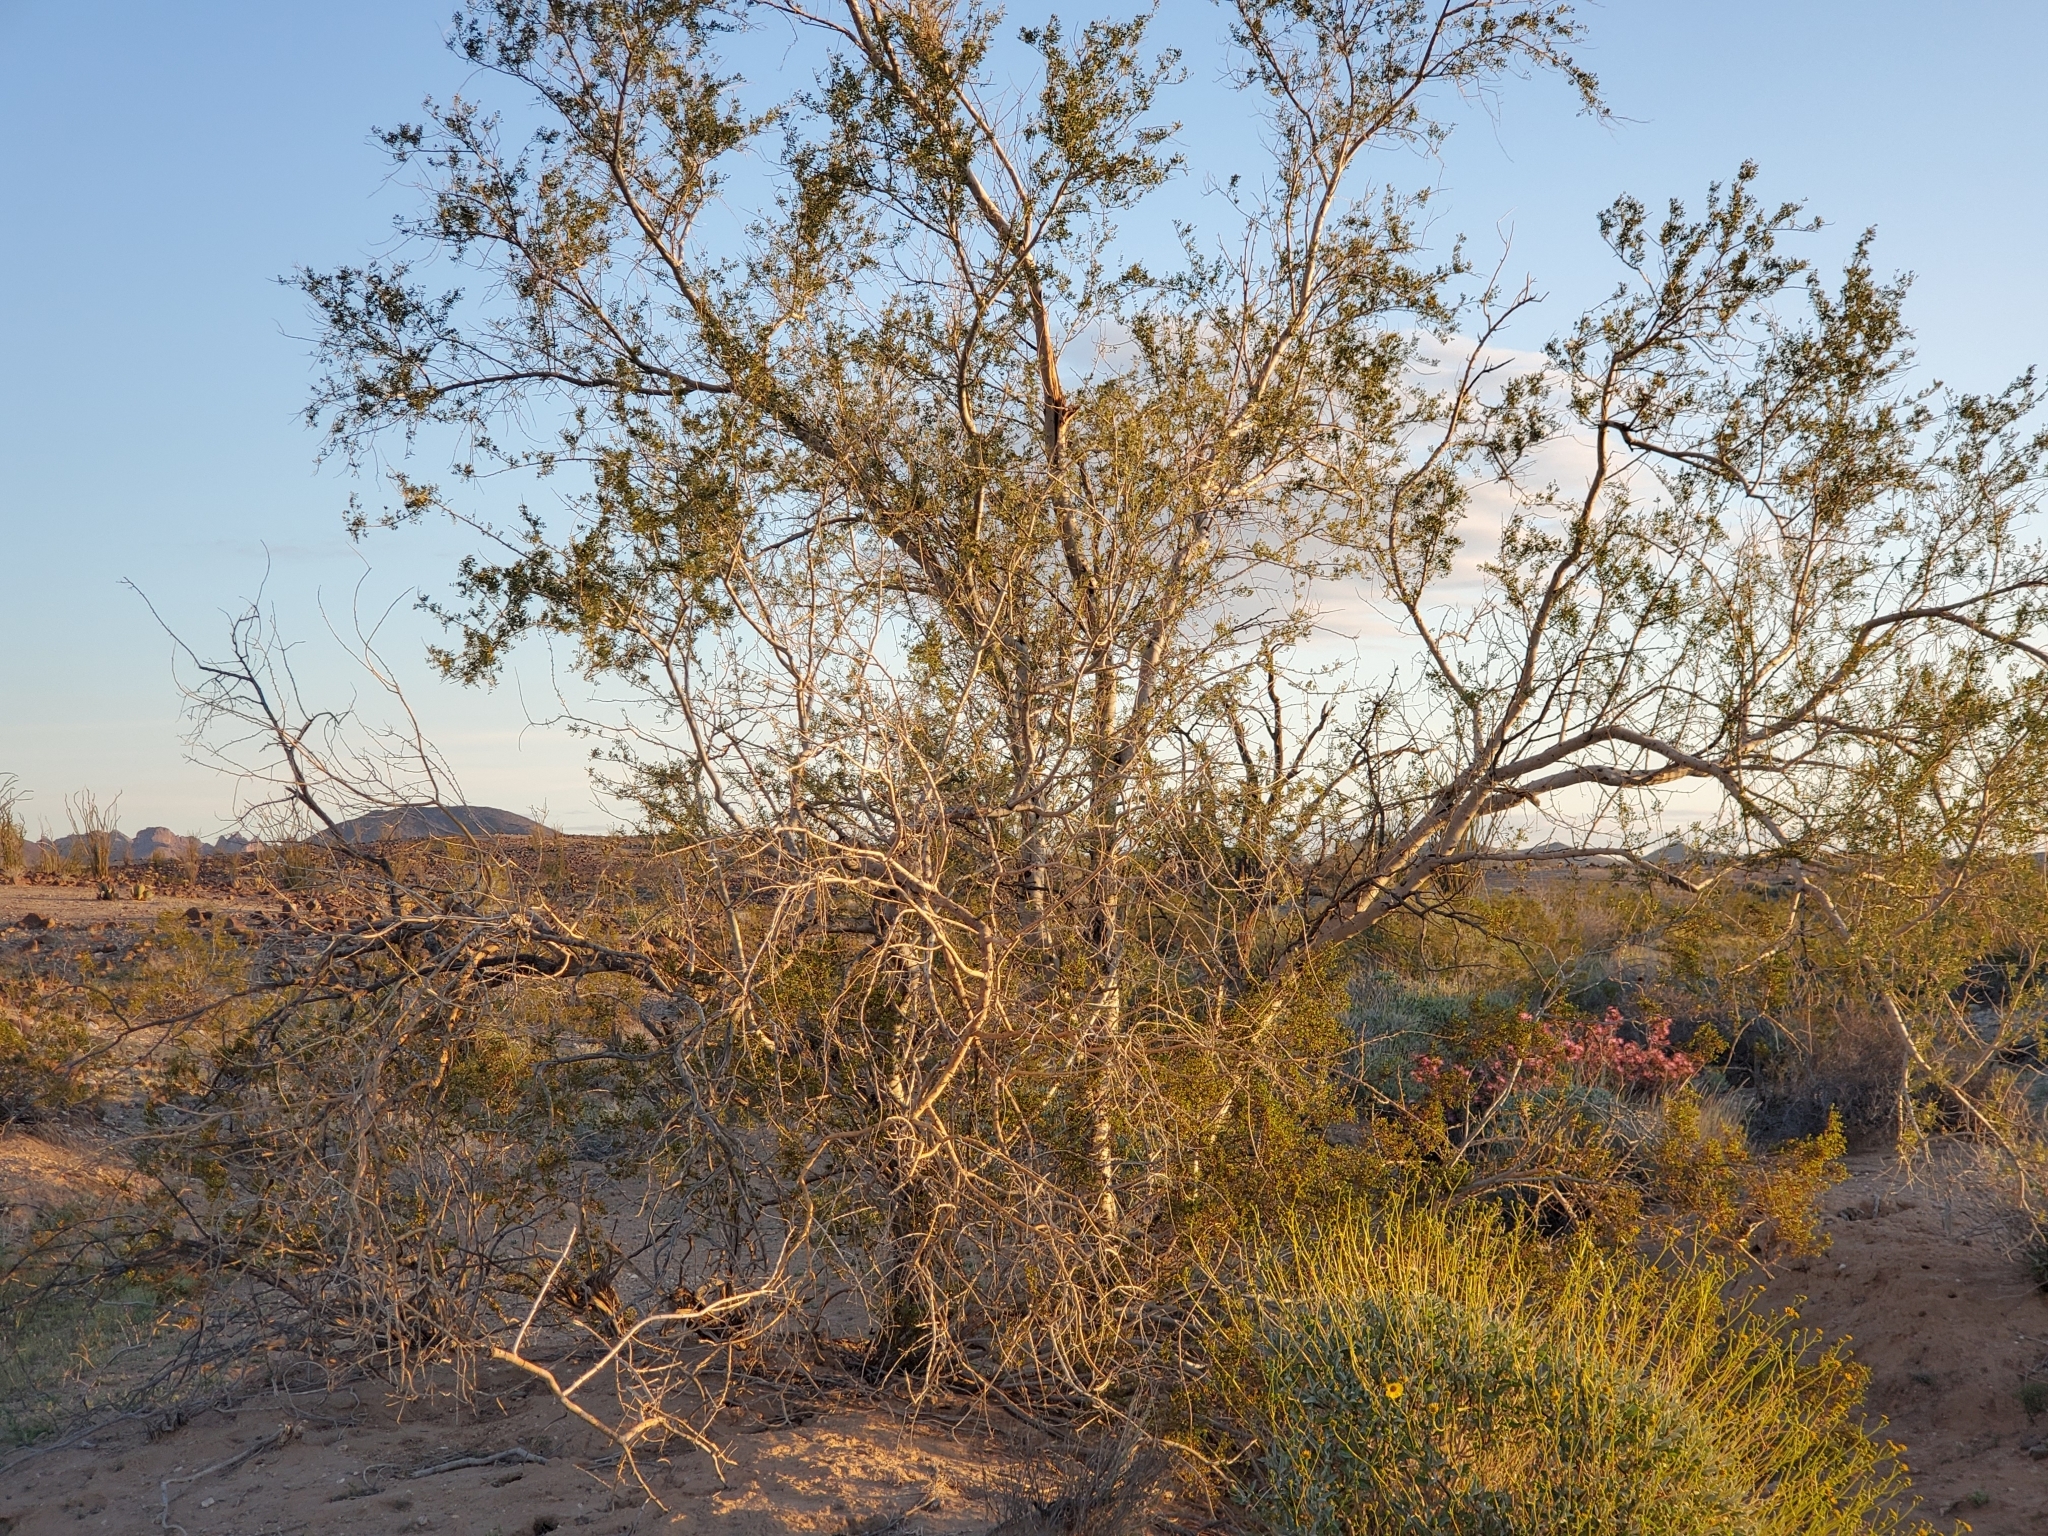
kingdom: Plantae
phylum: Tracheophyta
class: Magnoliopsida
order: Fabales
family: Fabaceae
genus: Olneya
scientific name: Olneya tesota
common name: Desert ironwood
